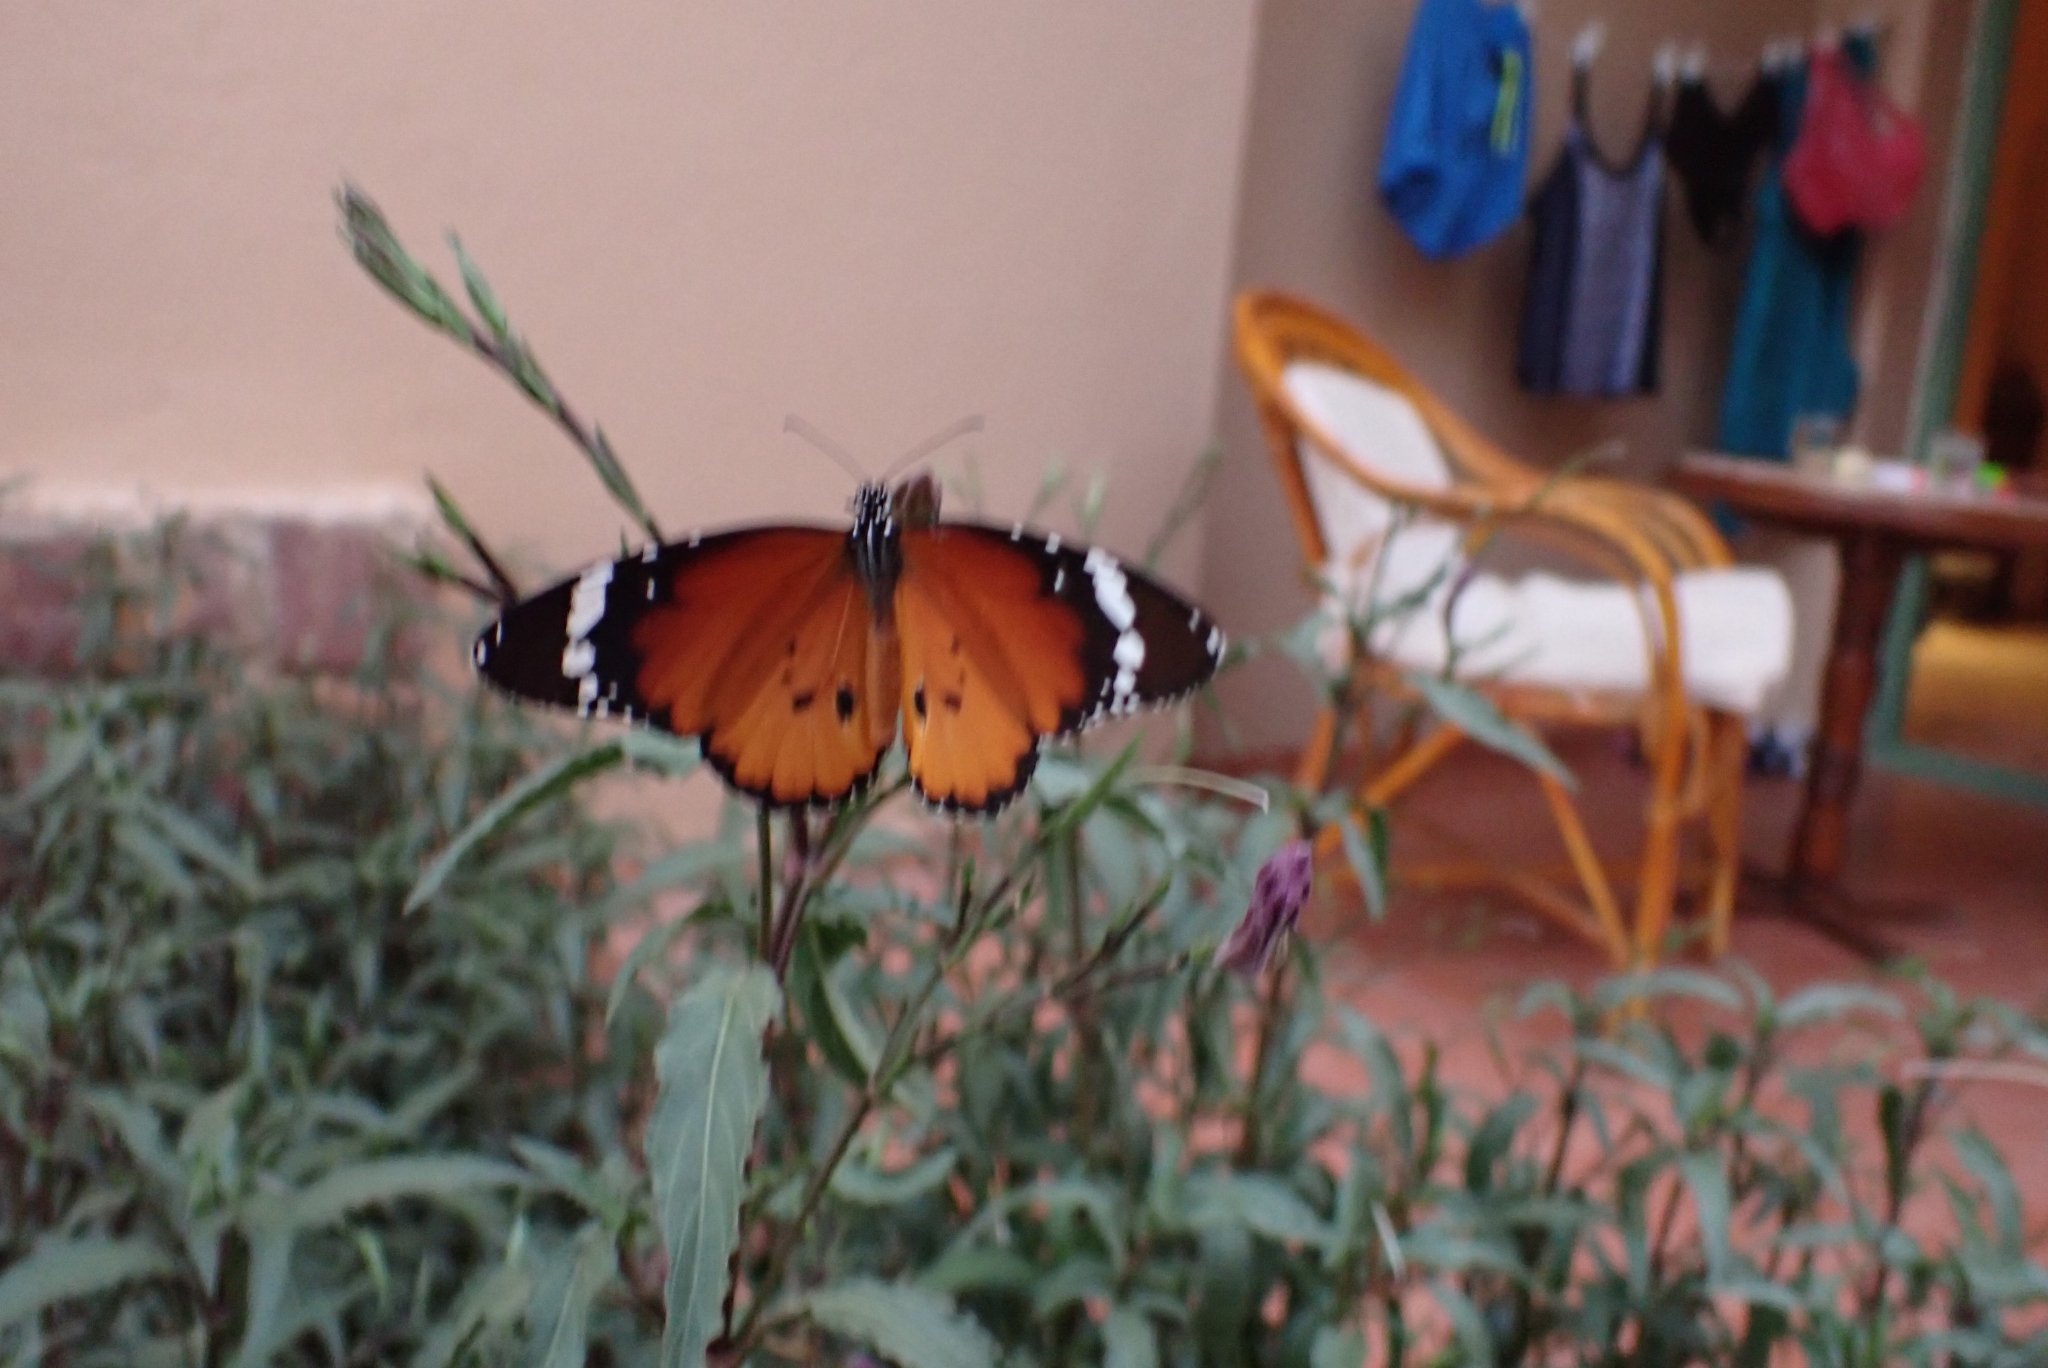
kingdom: Animalia
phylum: Arthropoda
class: Insecta
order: Lepidoptera
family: Nymphalidae
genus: Danaus
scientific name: Danaus chrysippus
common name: Plain tiger
